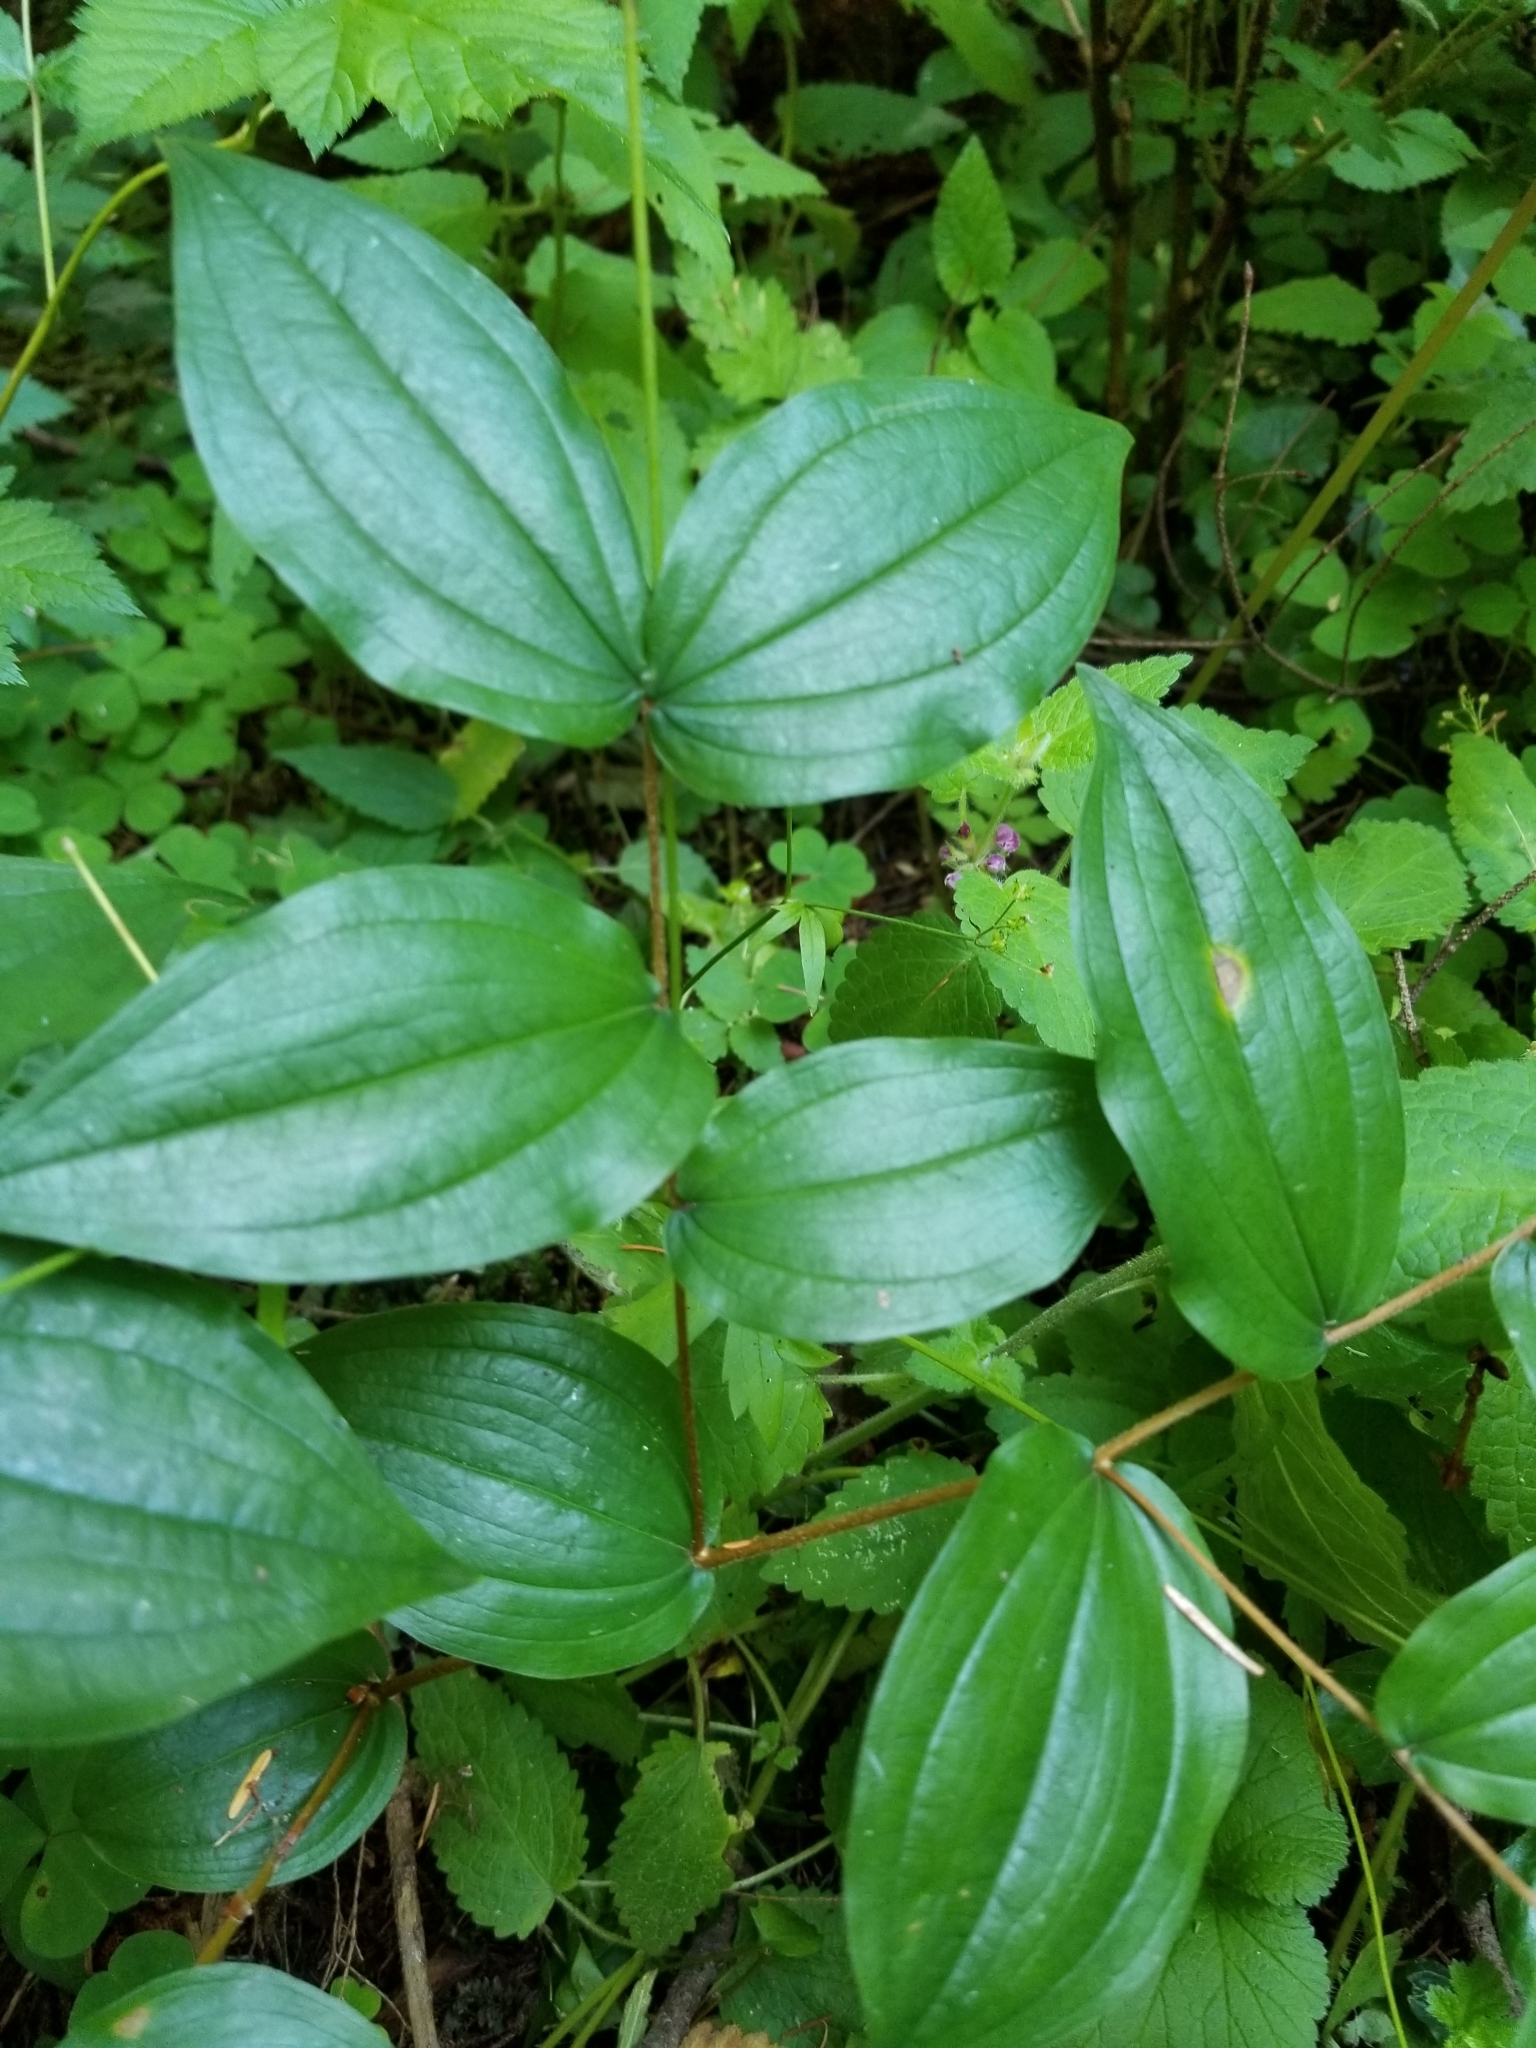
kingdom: Plantae
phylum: Tracheophyta
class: Liliopsida
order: Liliales
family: Liliaceae
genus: Prosartes
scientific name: Prosartes smithii
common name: Fairy-lantern
